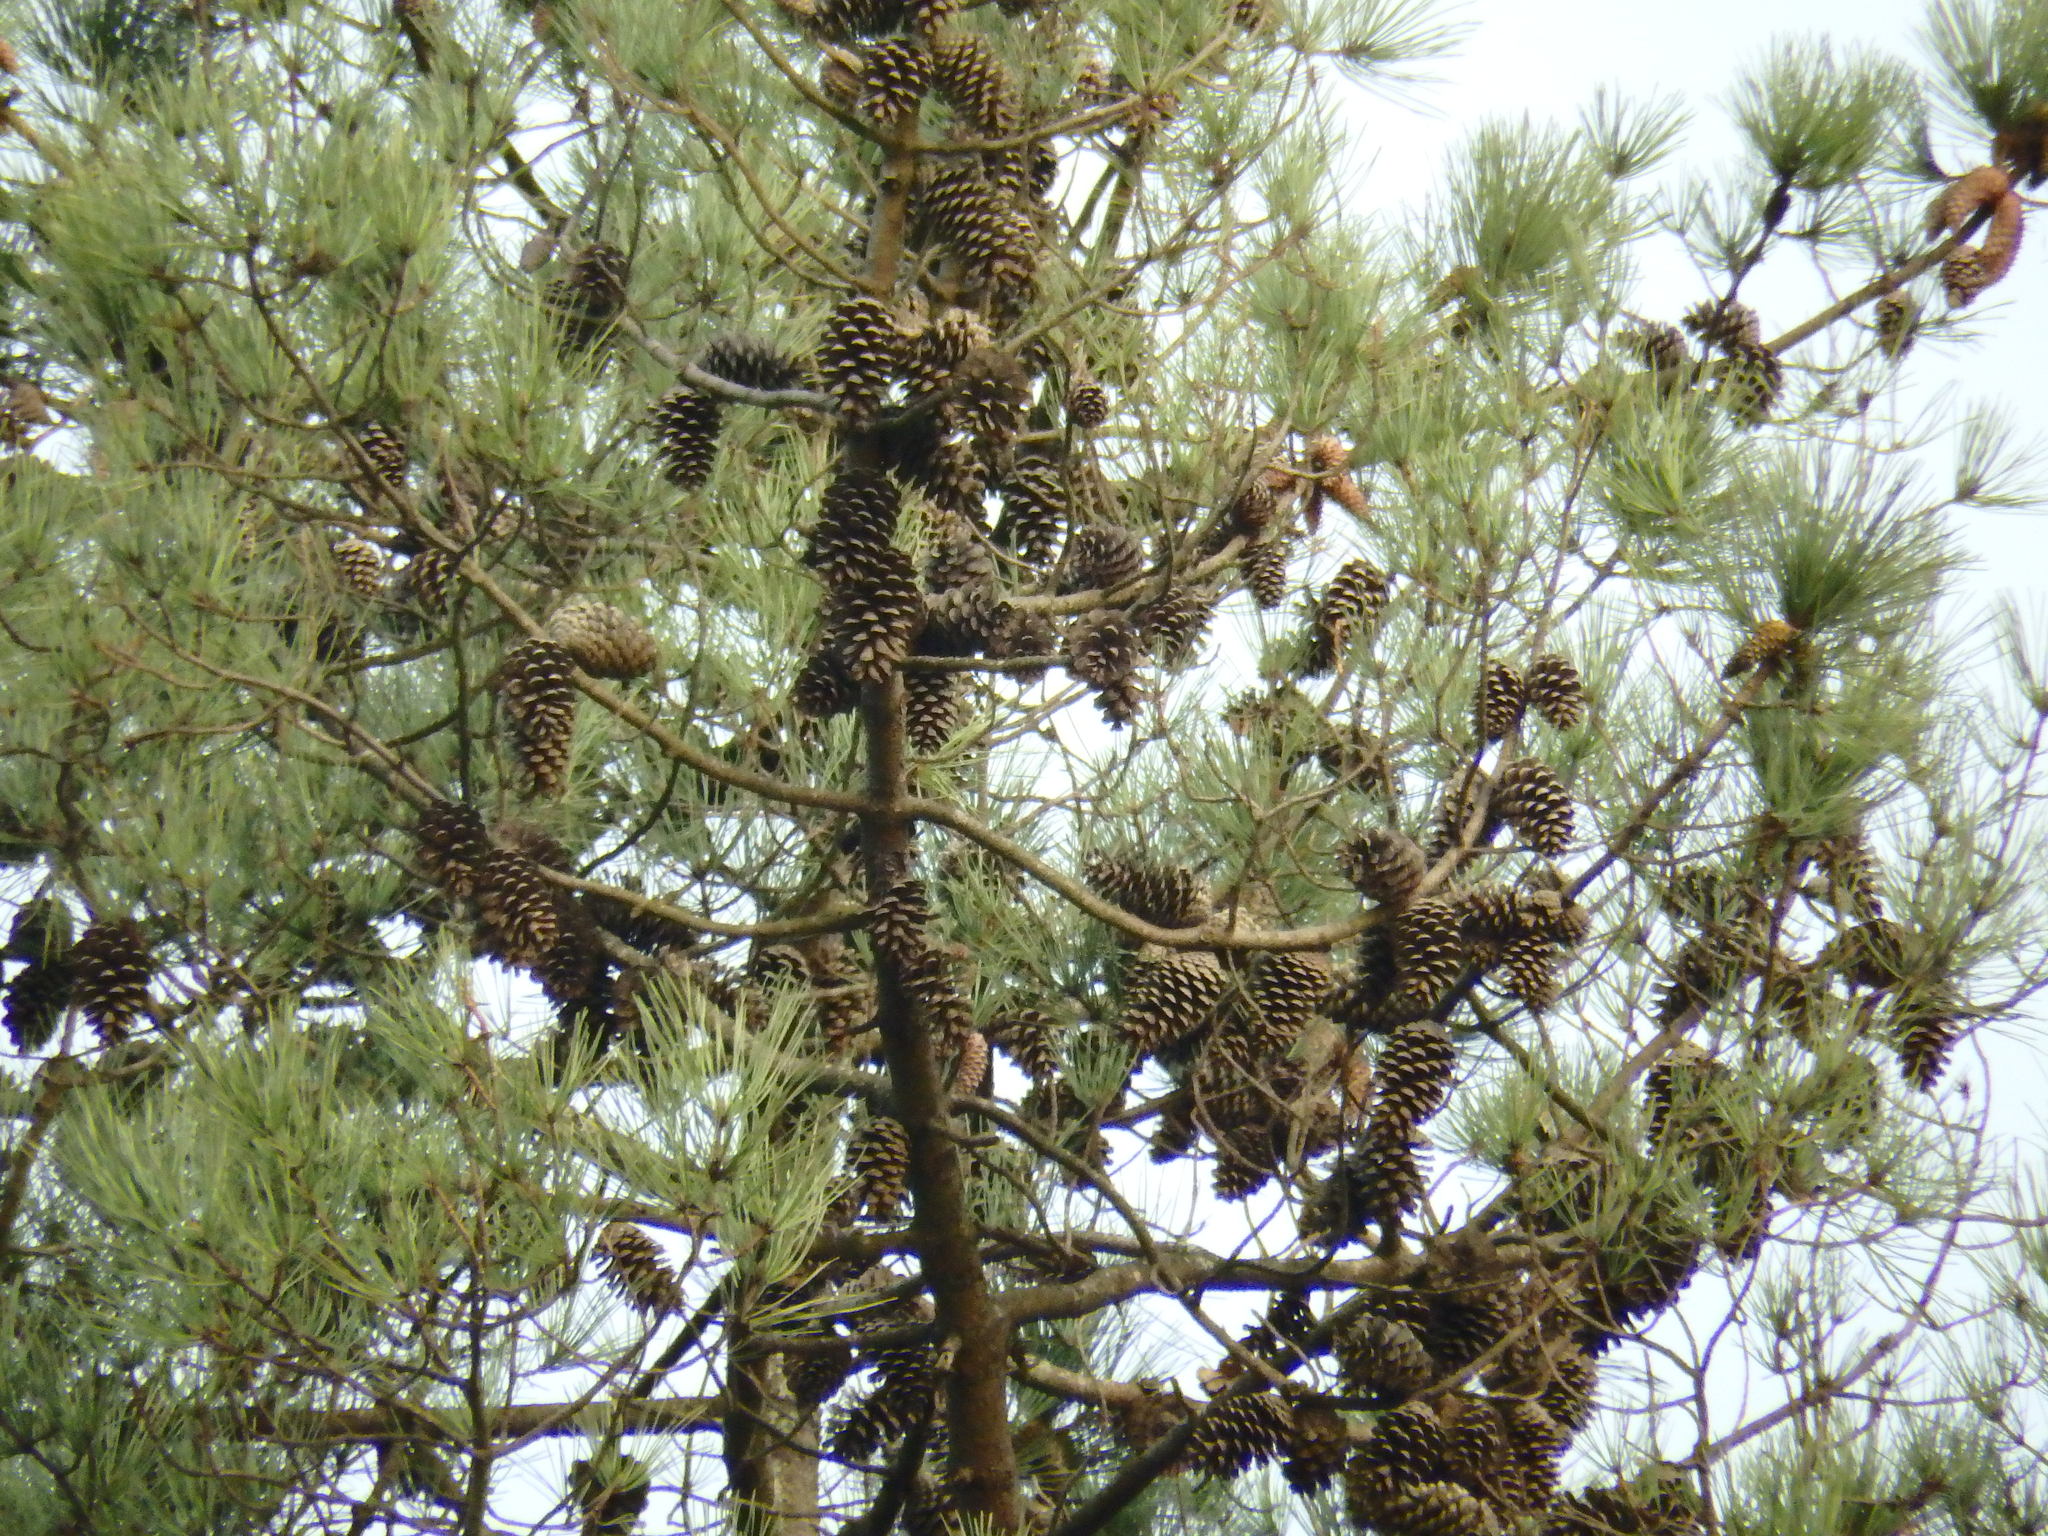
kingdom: Plantae
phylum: Tracheophyta
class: Pinopsida
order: Pinales
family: Pinaceae
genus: Pinus
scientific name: Pinus pinaster
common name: Maritime pine
